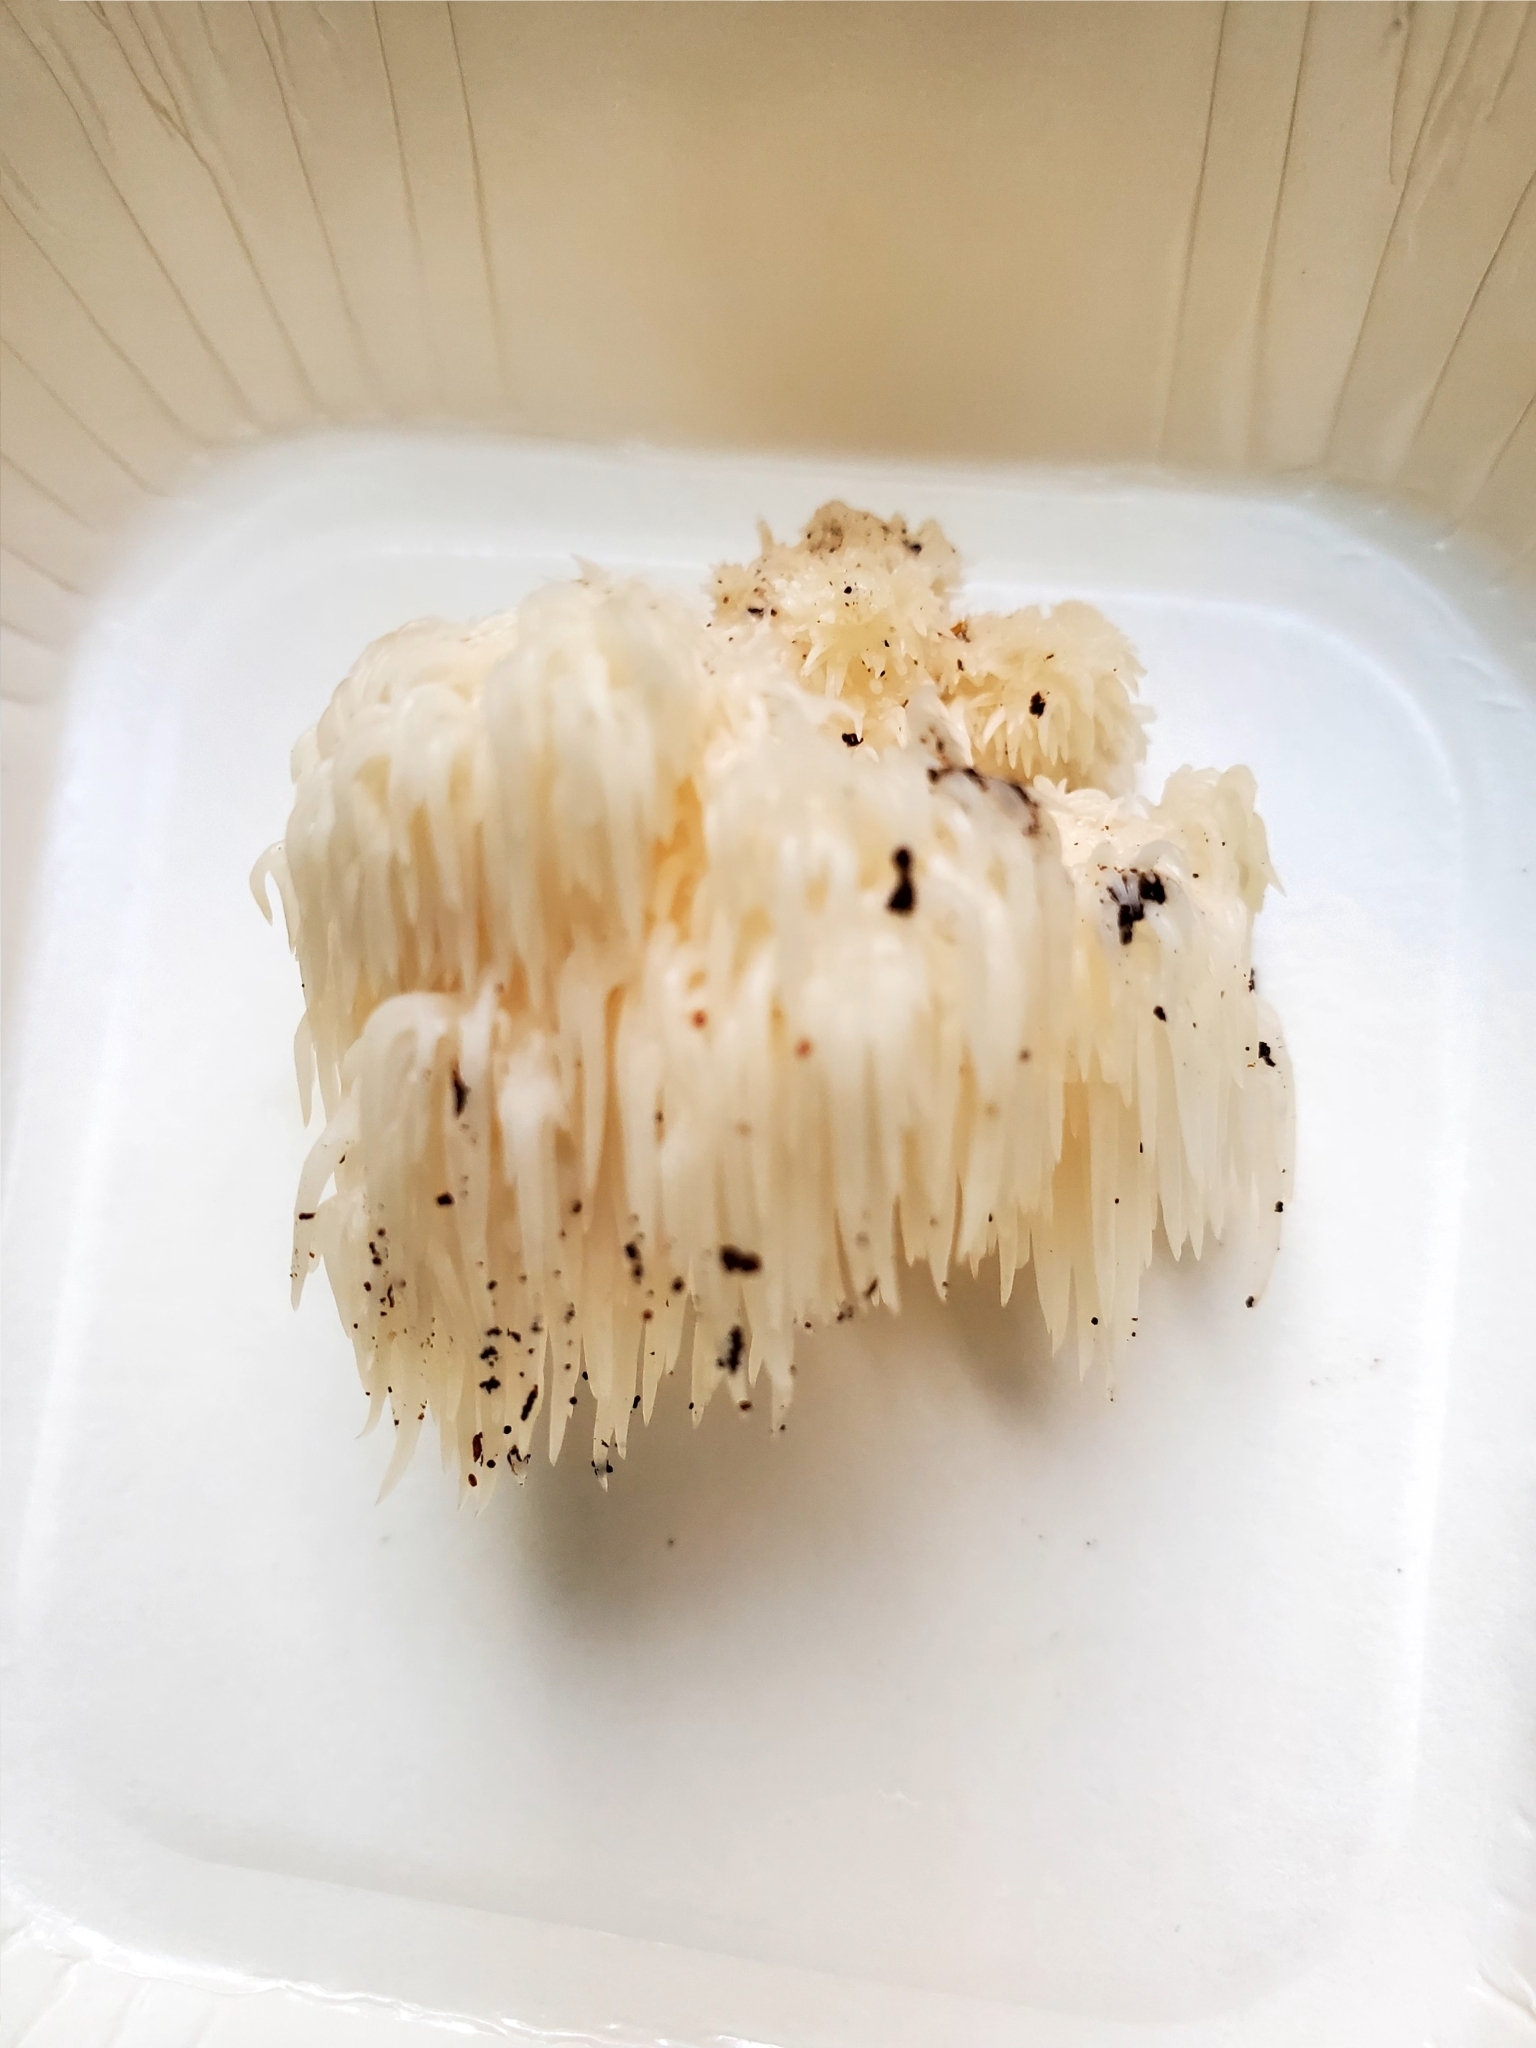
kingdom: Fungi
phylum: Basidiomycota
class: Agaricomycetes
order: Russulales
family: Hericiaceae
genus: Hericium
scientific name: Hericium americanum
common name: Bear's head tooth
